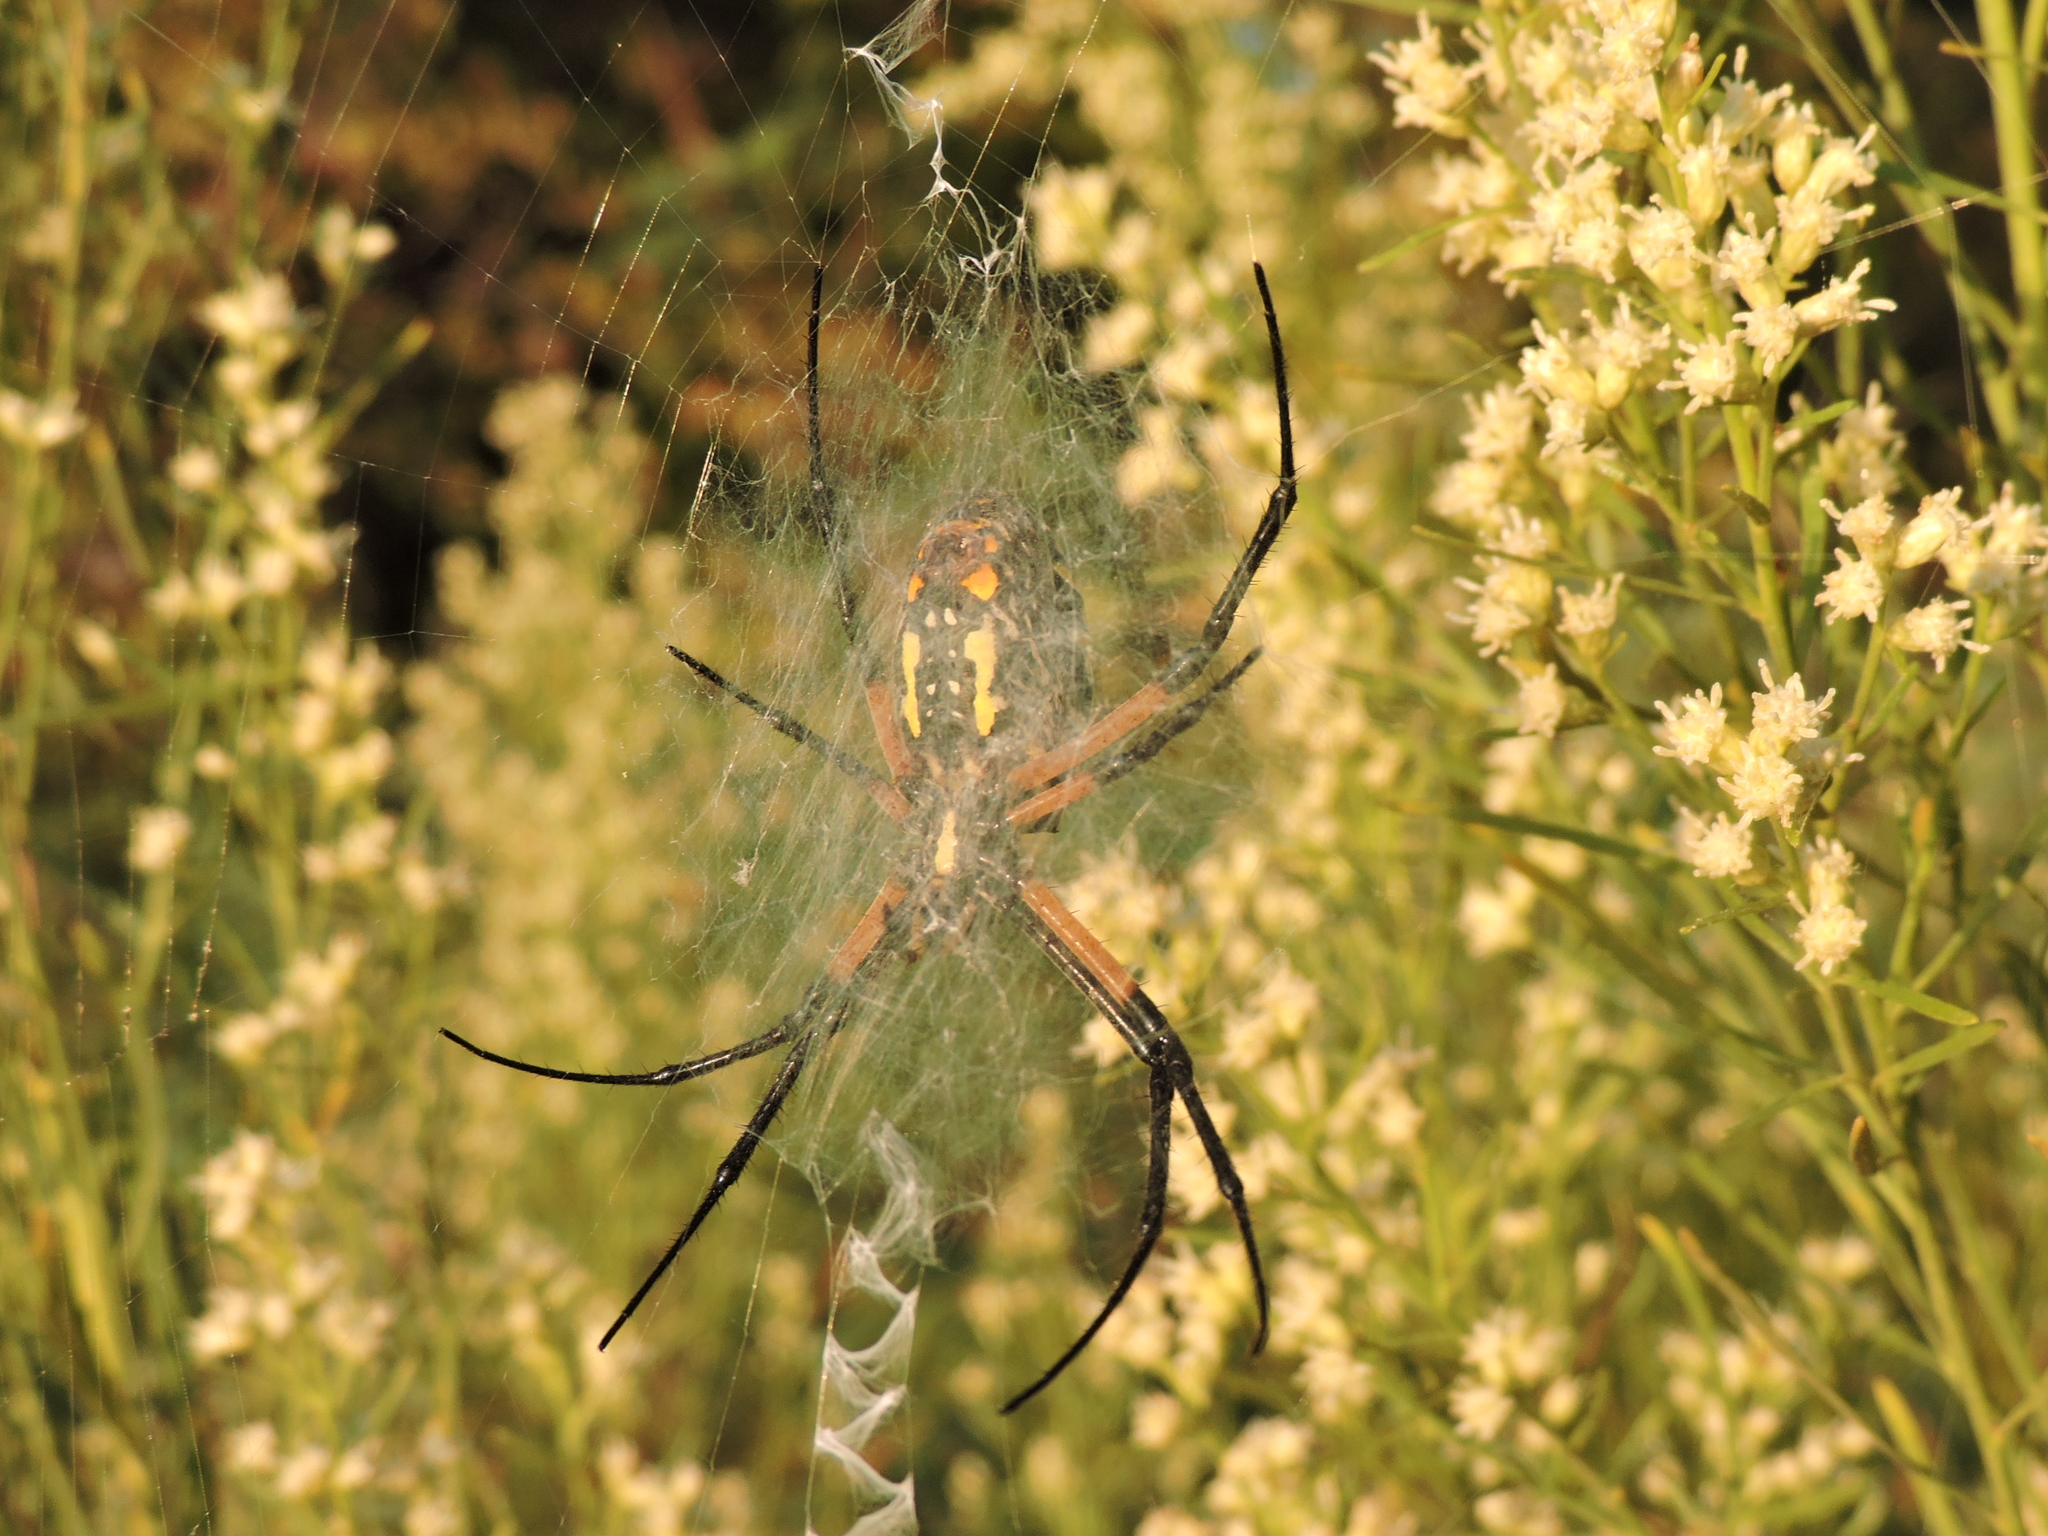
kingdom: Animalia
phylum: Arthropoda
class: Arachnida
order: Araneae
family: Araneidae
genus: Argiope
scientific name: Argiope aurantia
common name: Orb weavers
